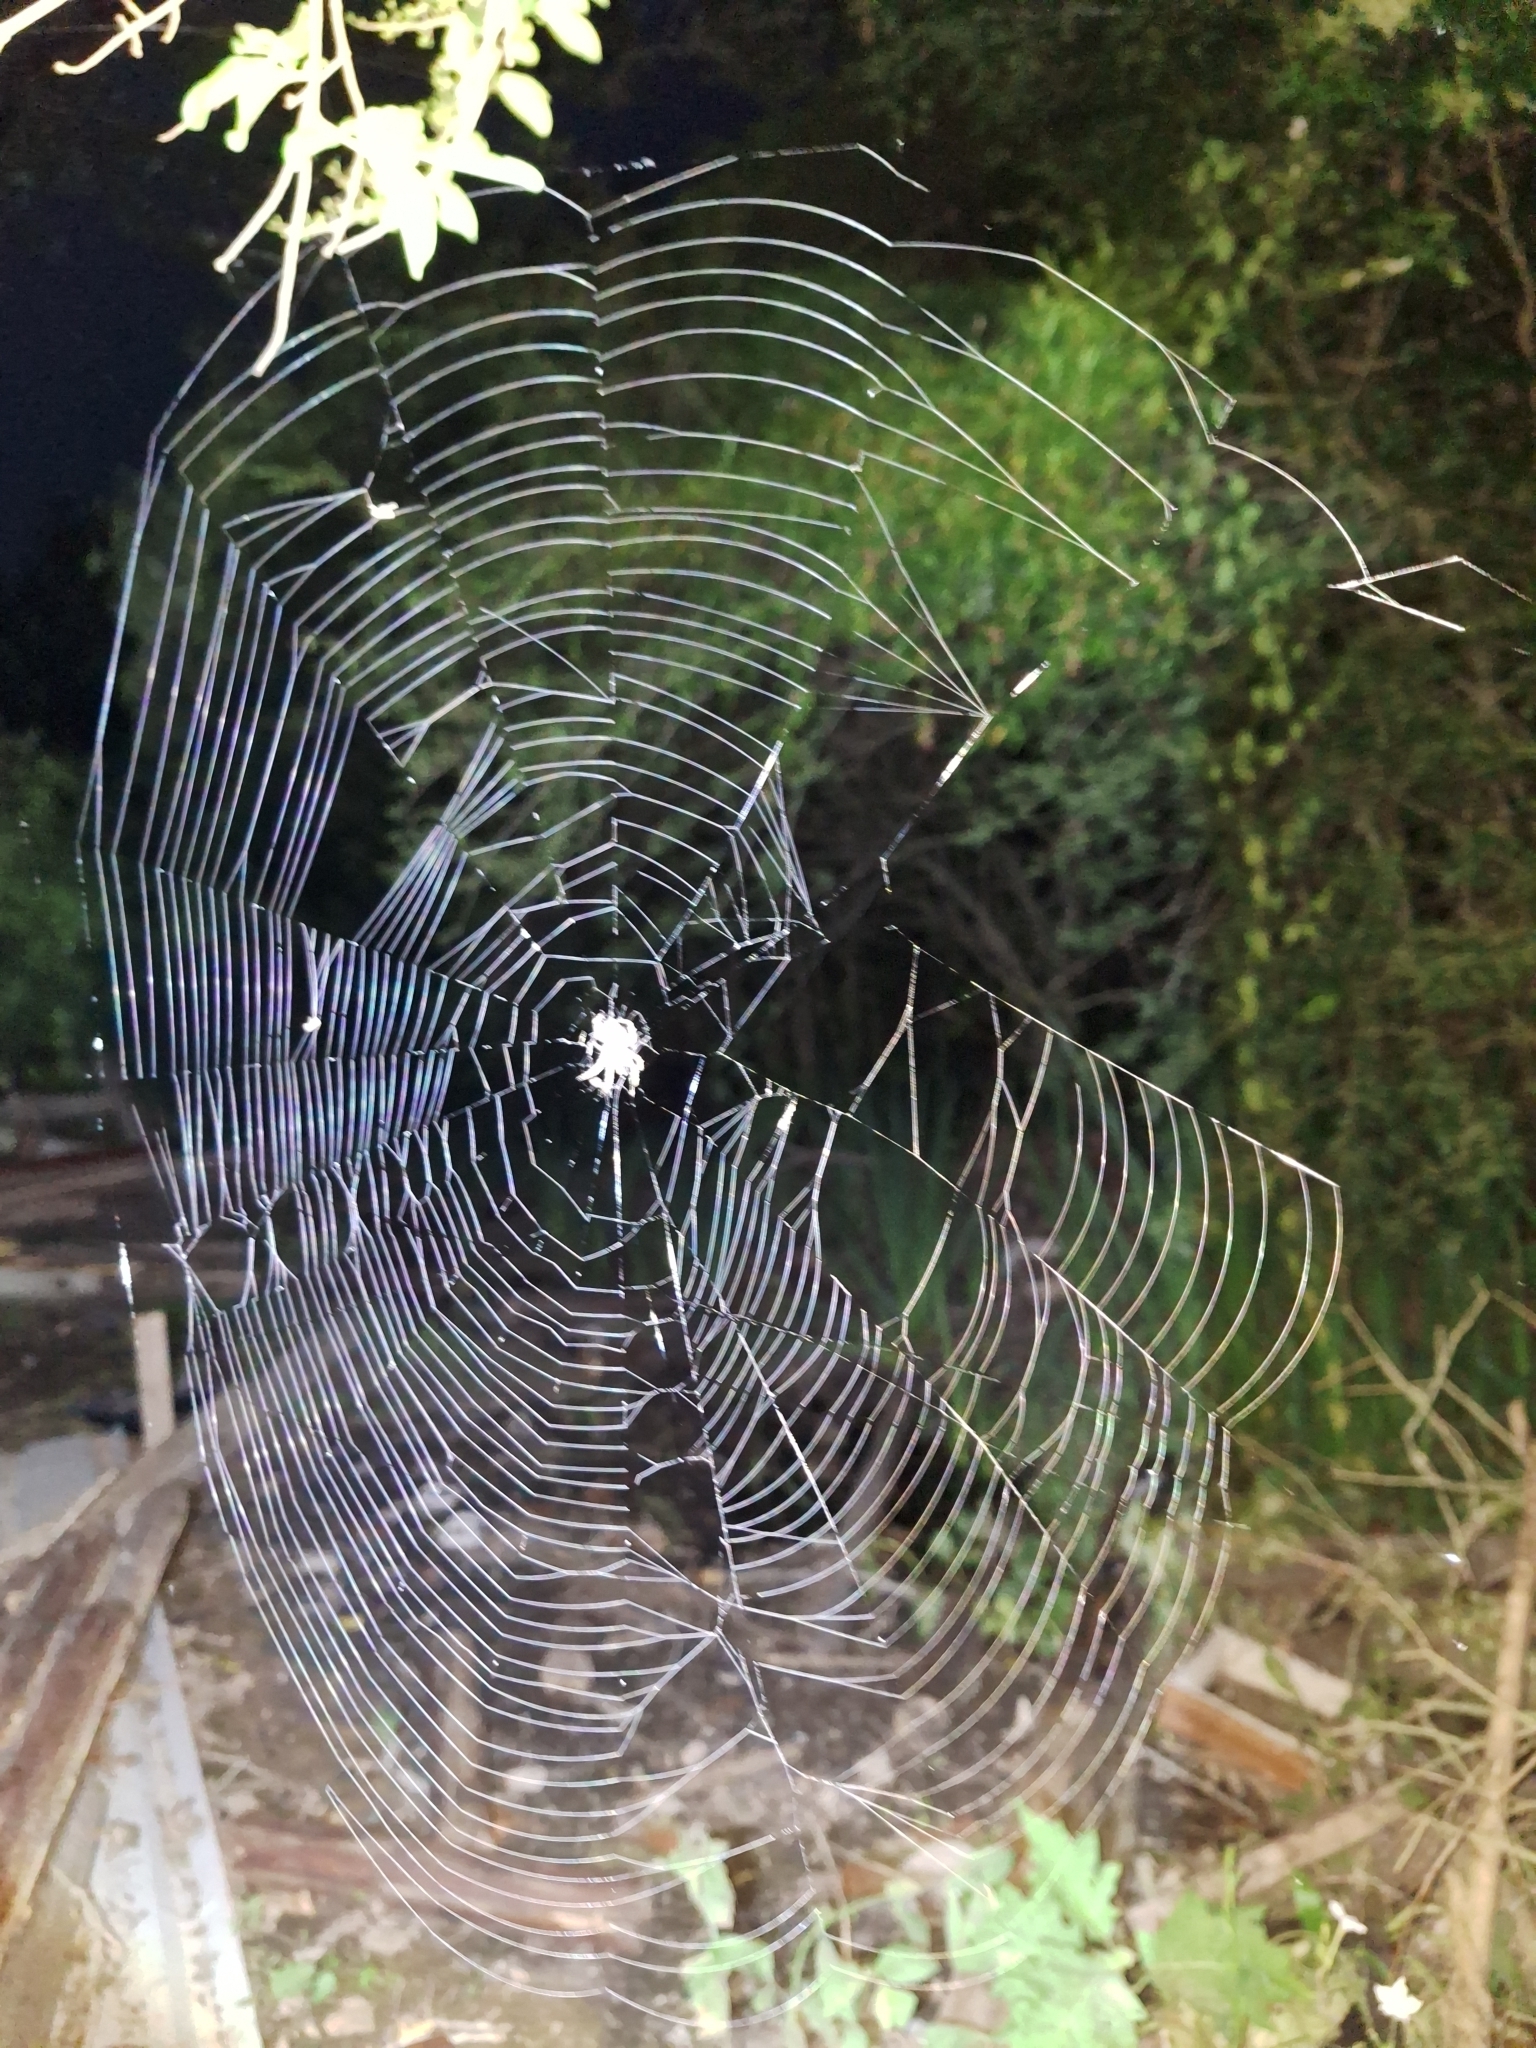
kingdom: Animalia
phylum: Arthropoda
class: Arachnida
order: Araneae
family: Araneidae
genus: Parawixia
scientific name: Parawixia audax
